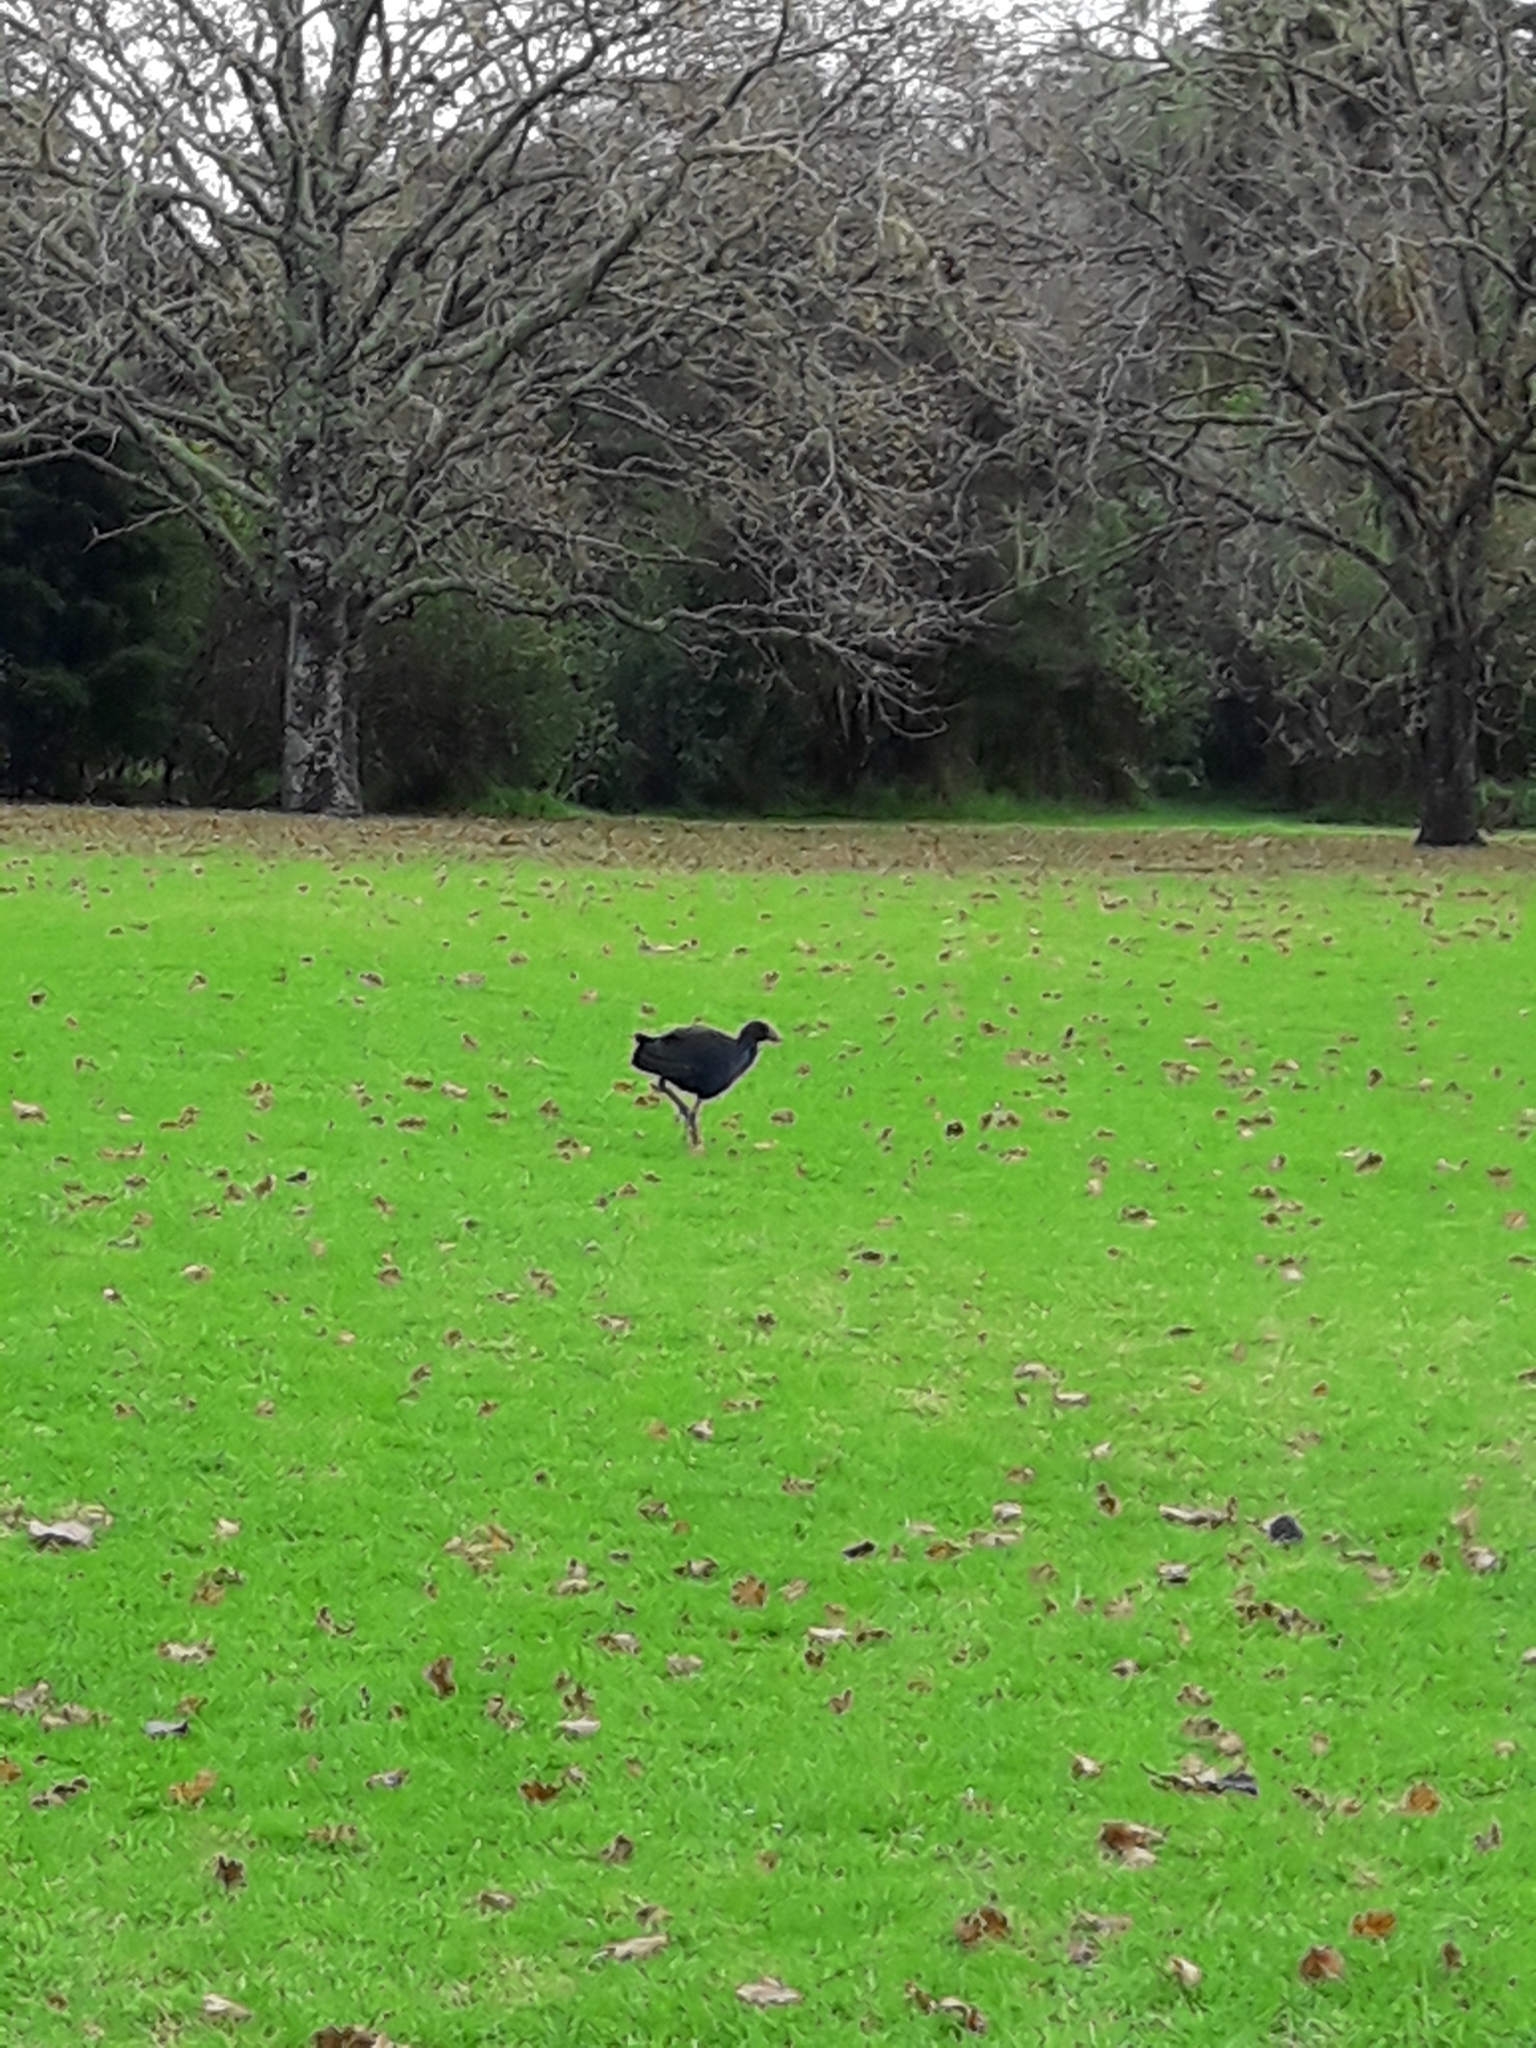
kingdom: Animalia
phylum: Chordata
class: Aves
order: Gruiformes
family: Rallidae
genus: Porphyrio
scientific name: Porphyrio melanotus
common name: Australasian swamphen
